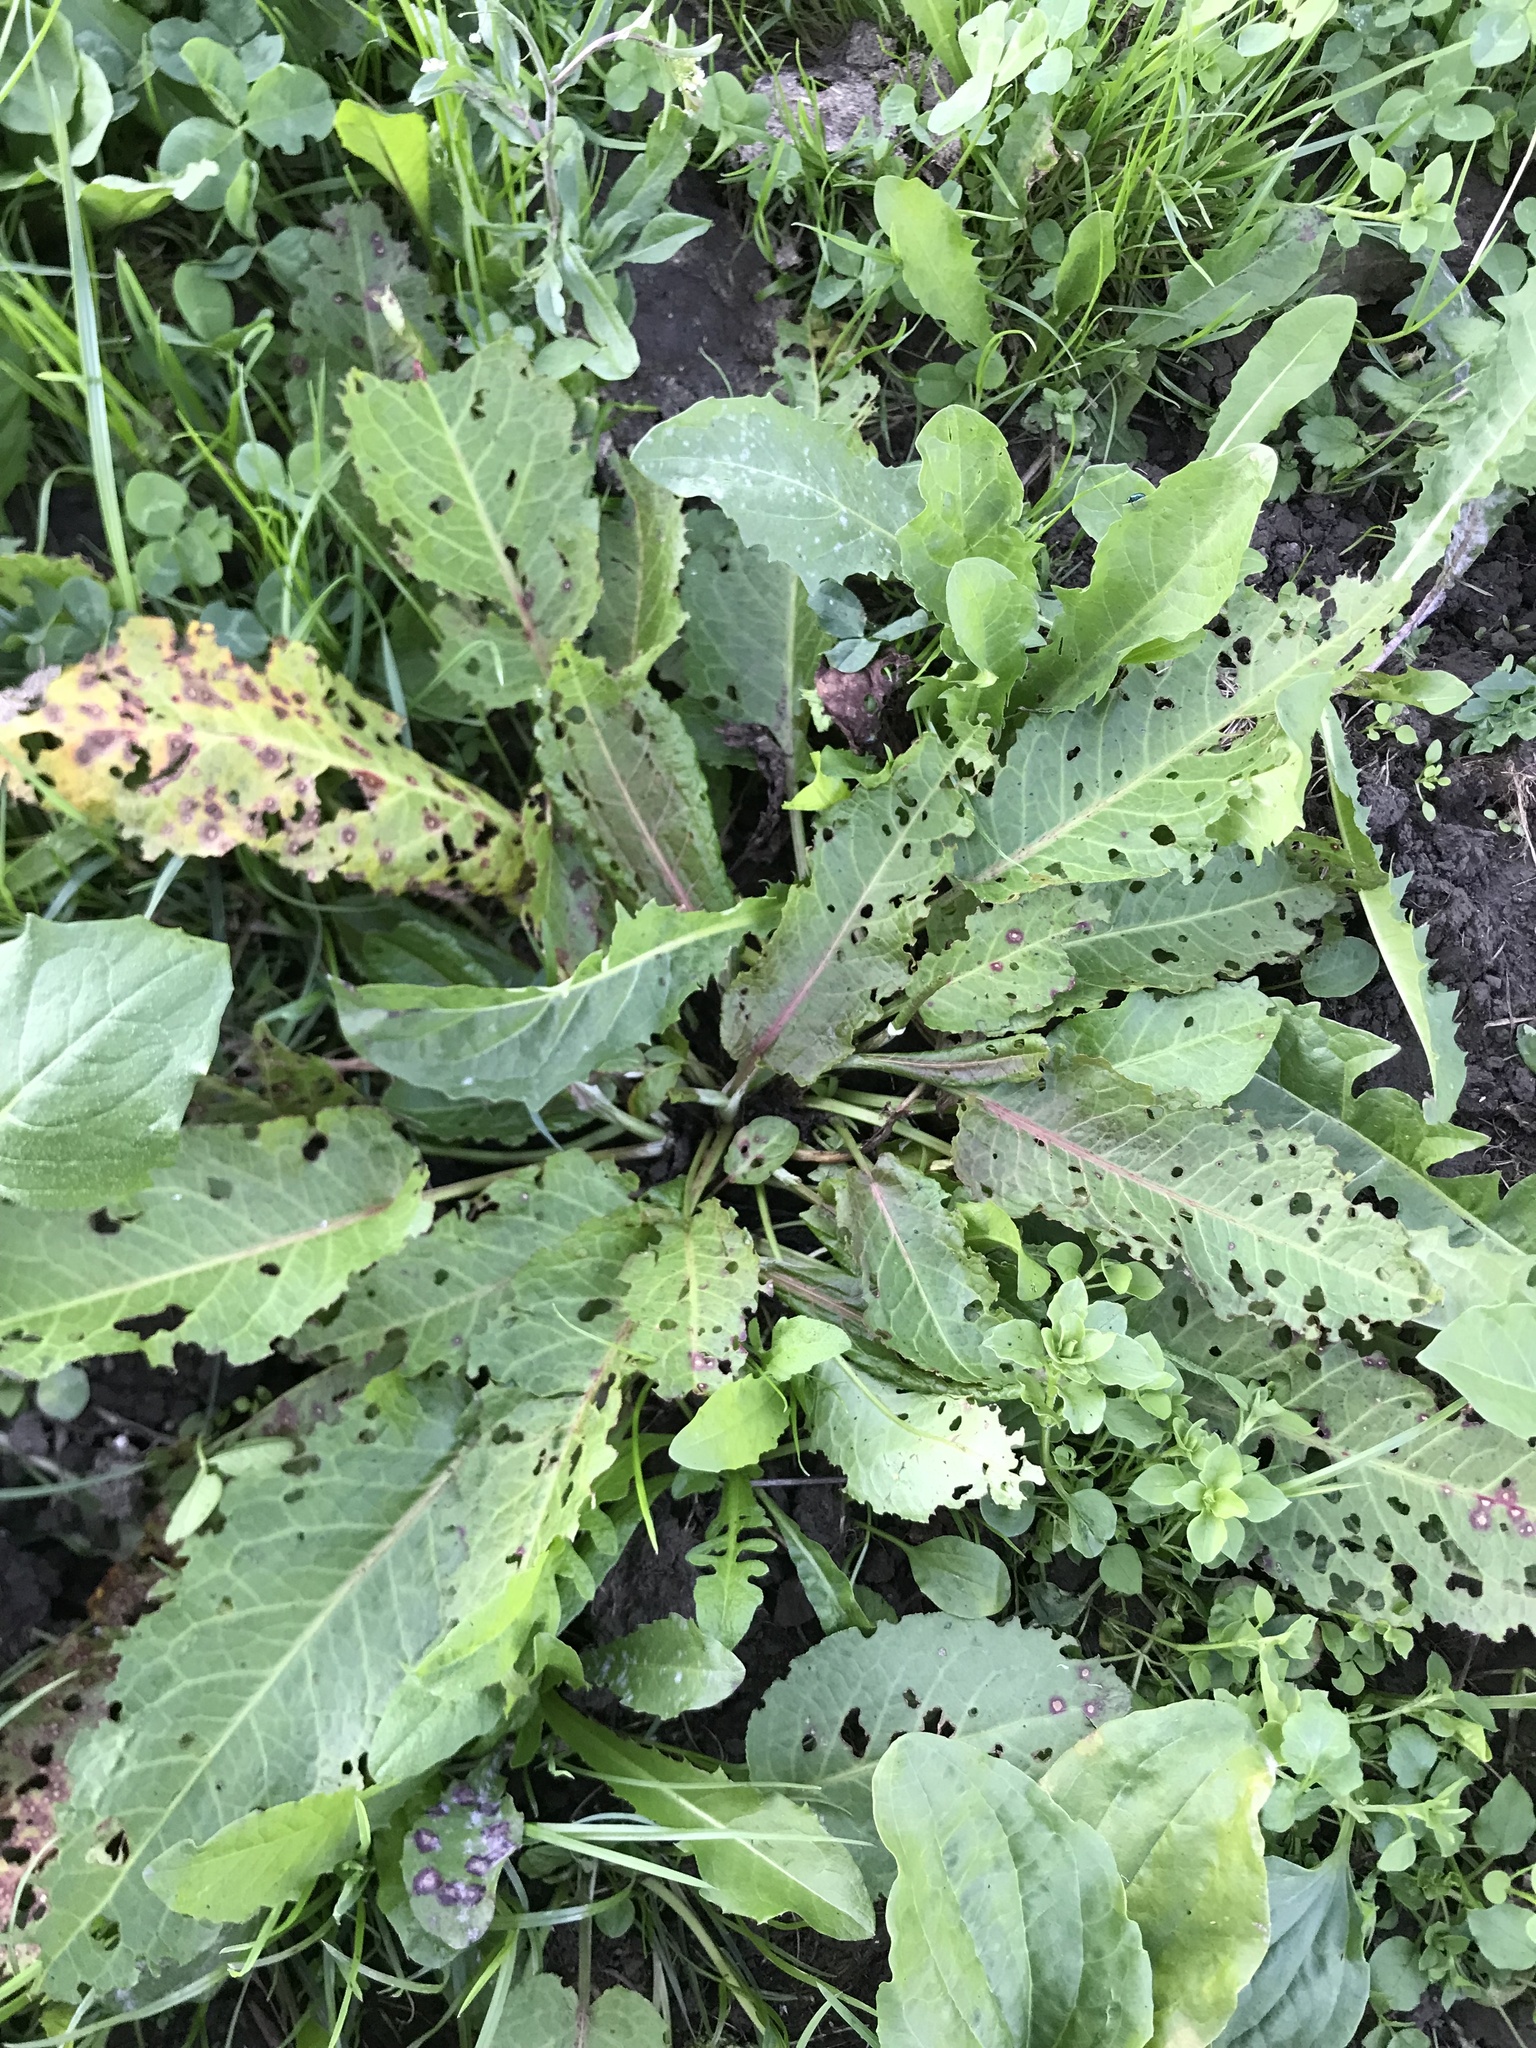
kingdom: Animalia
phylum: Arthropoda
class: Insecta
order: Coleoptera
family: Chrysomelidae
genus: Gastrophysa
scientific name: Gastrophysa viridula
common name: Green dock beetle
